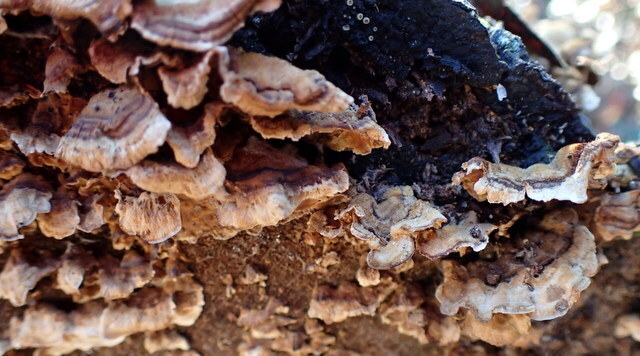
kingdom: Fungi
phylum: Basidiomycota
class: Agaricomycetes
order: Russulales
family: Stereaceae
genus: Stereum
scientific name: Stereum complicatum
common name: Crowded parchment
